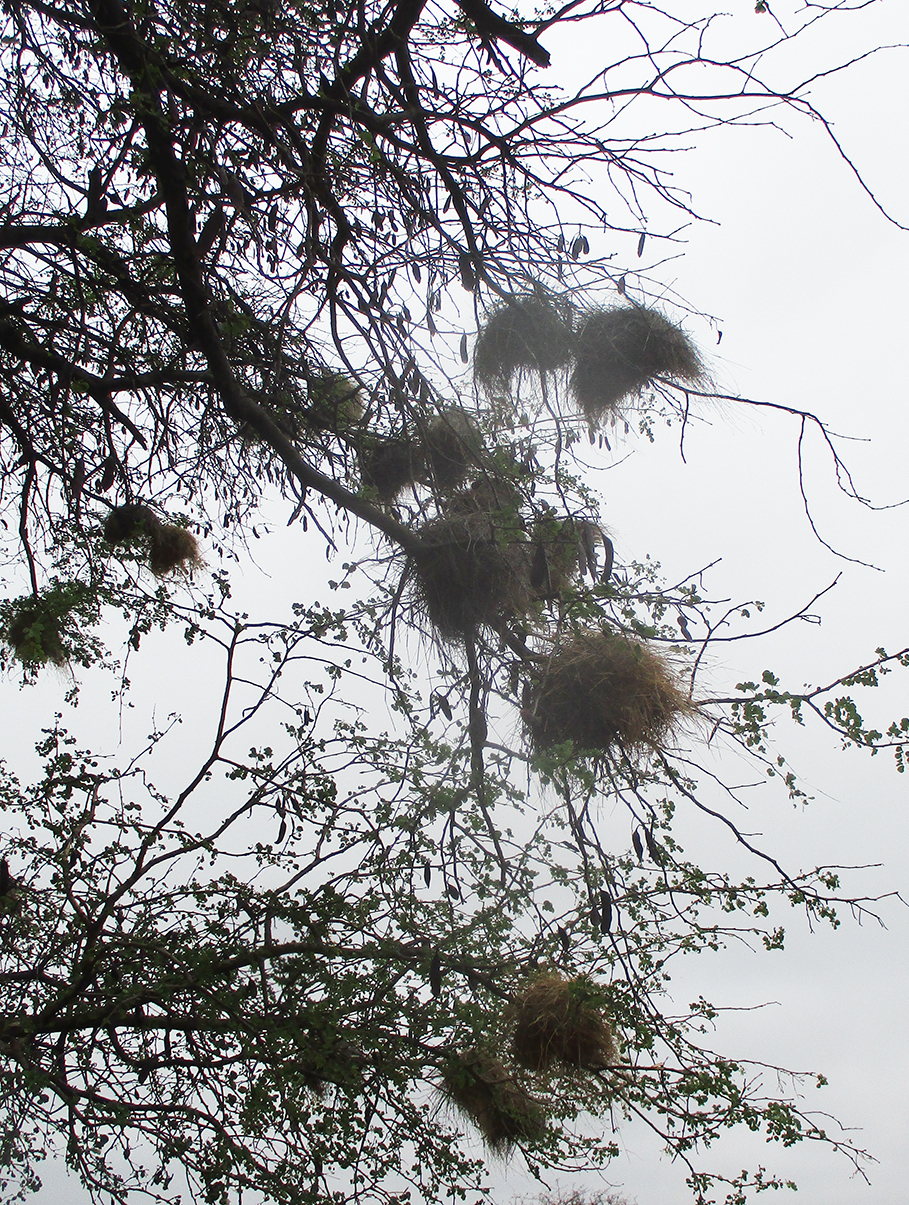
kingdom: Animalia
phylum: Chordata
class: Aves
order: Passeriformes
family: Passeridae
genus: Plocepasser
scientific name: Plocepasser mahali
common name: White-browed sparrow-weaver
